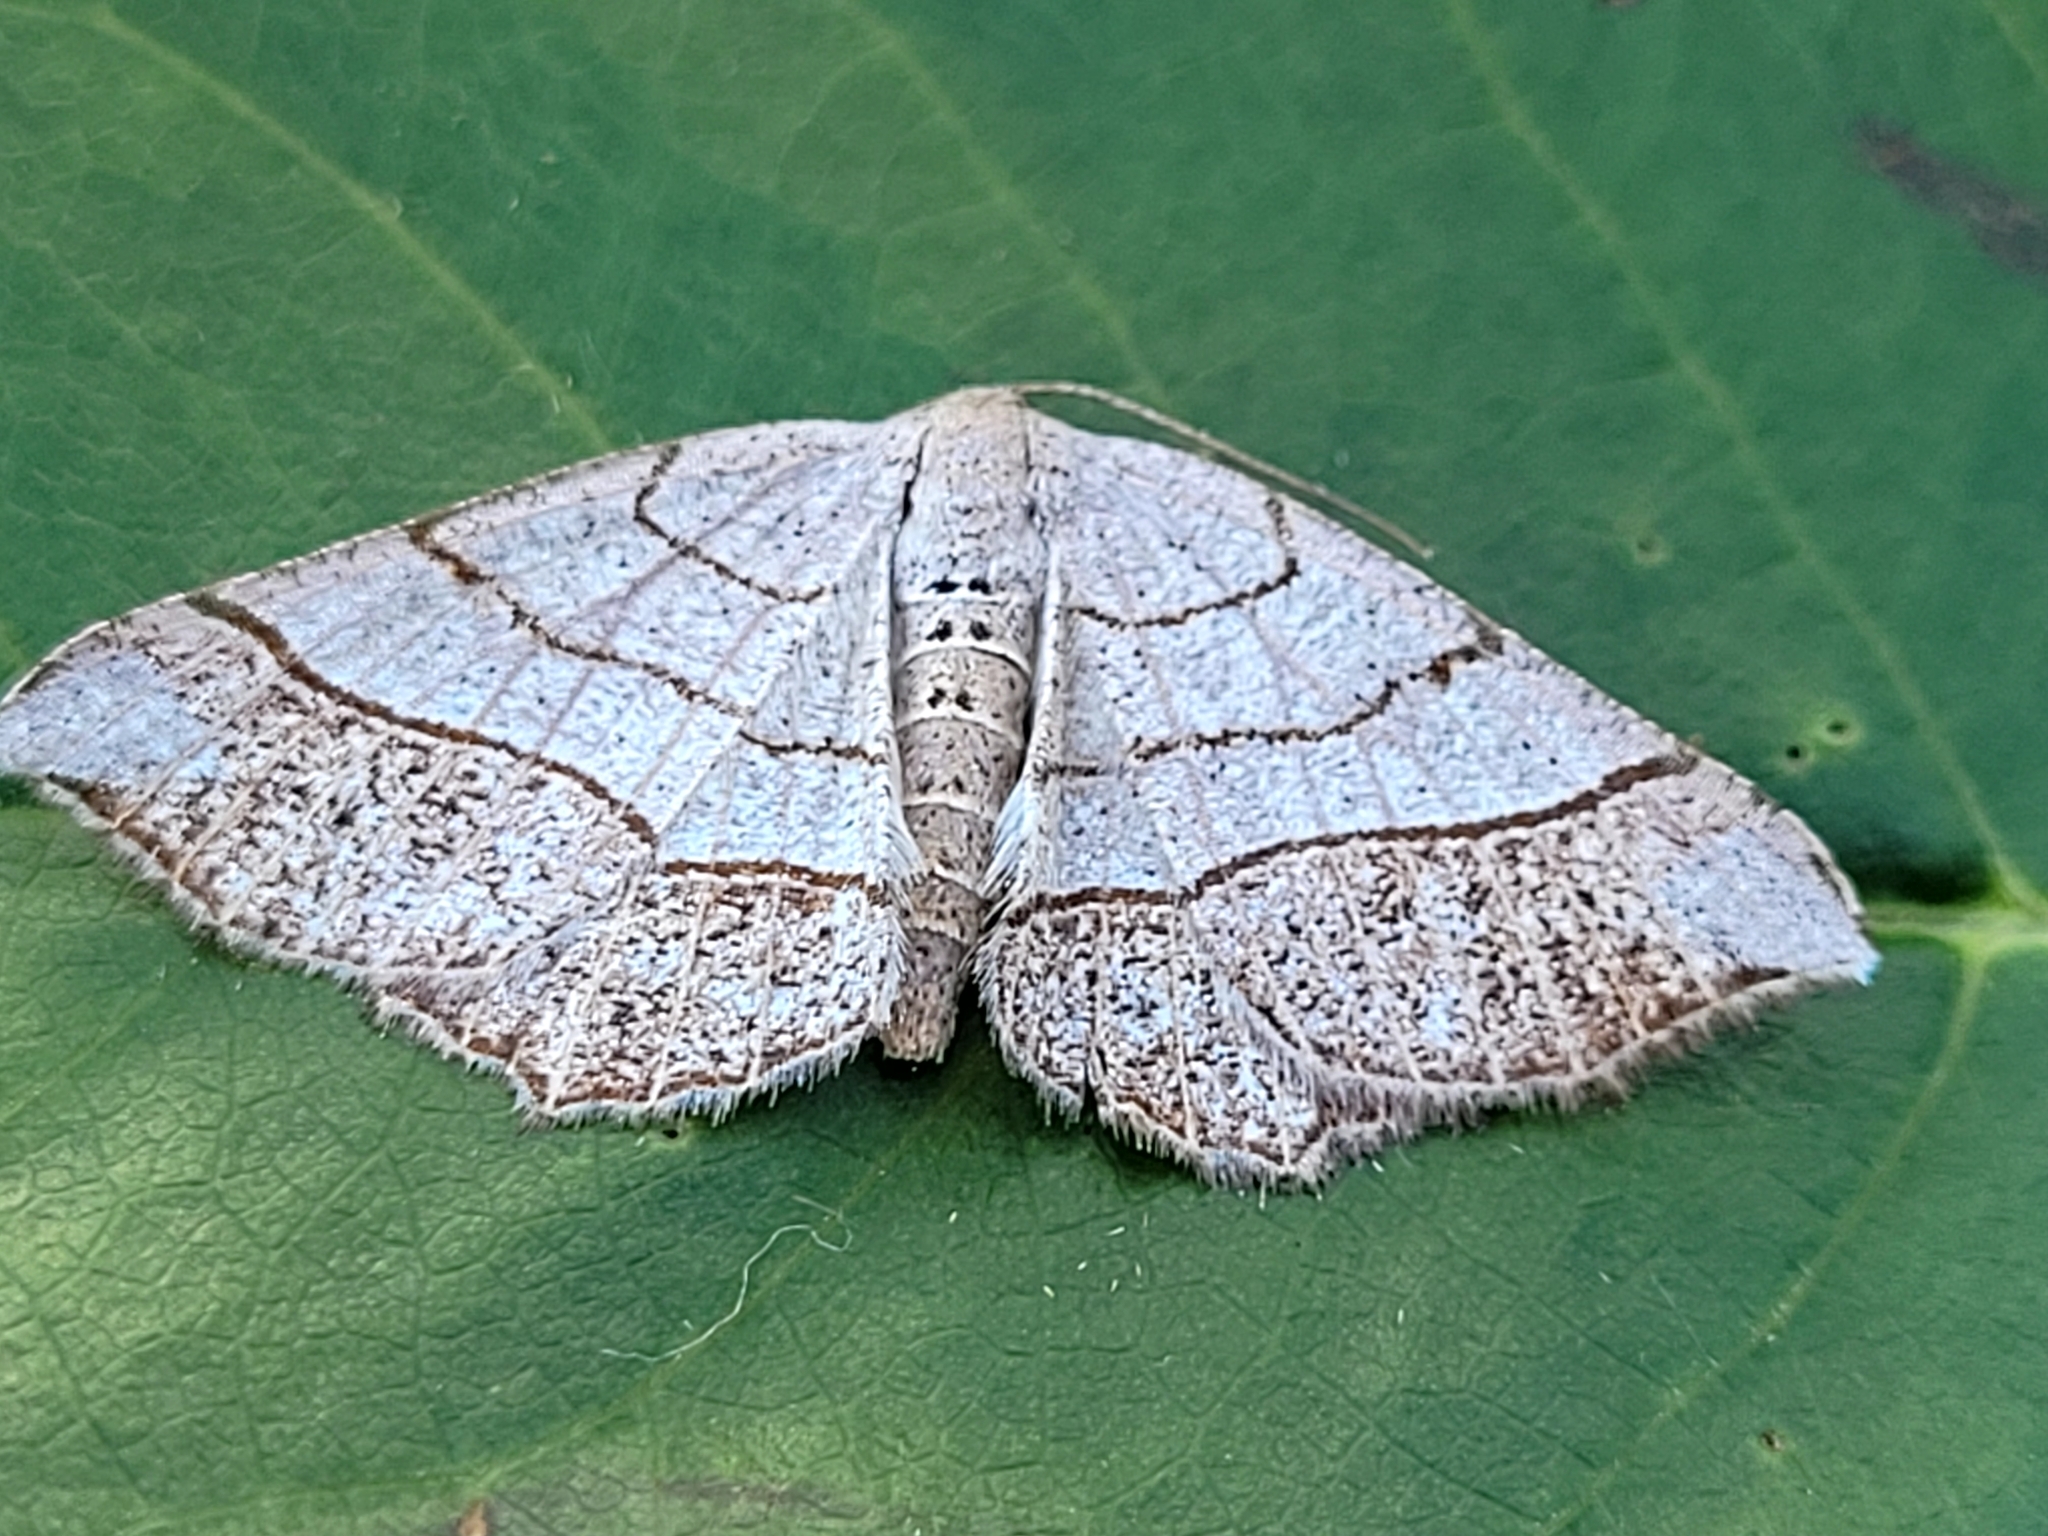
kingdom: Animalia
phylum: Arthropoda
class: Insecta
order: Lepidoptera
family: Geometridae
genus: Eumacaria
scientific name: Eumacaria madopata
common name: Brown-bordered geometer
